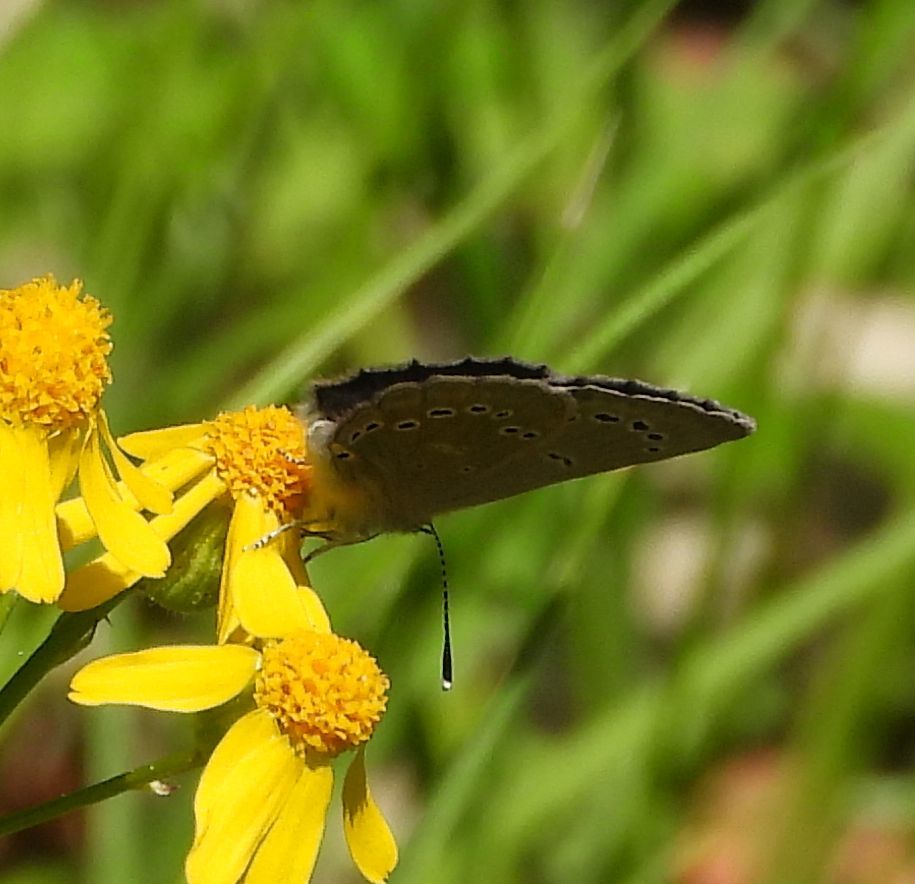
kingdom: Animalia
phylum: Arthropoda
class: Insecta
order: Lepidoptera
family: Lycaenidae
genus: Glaucopsyche
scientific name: Glaucopsyche lygdamus
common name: Silvery blue
